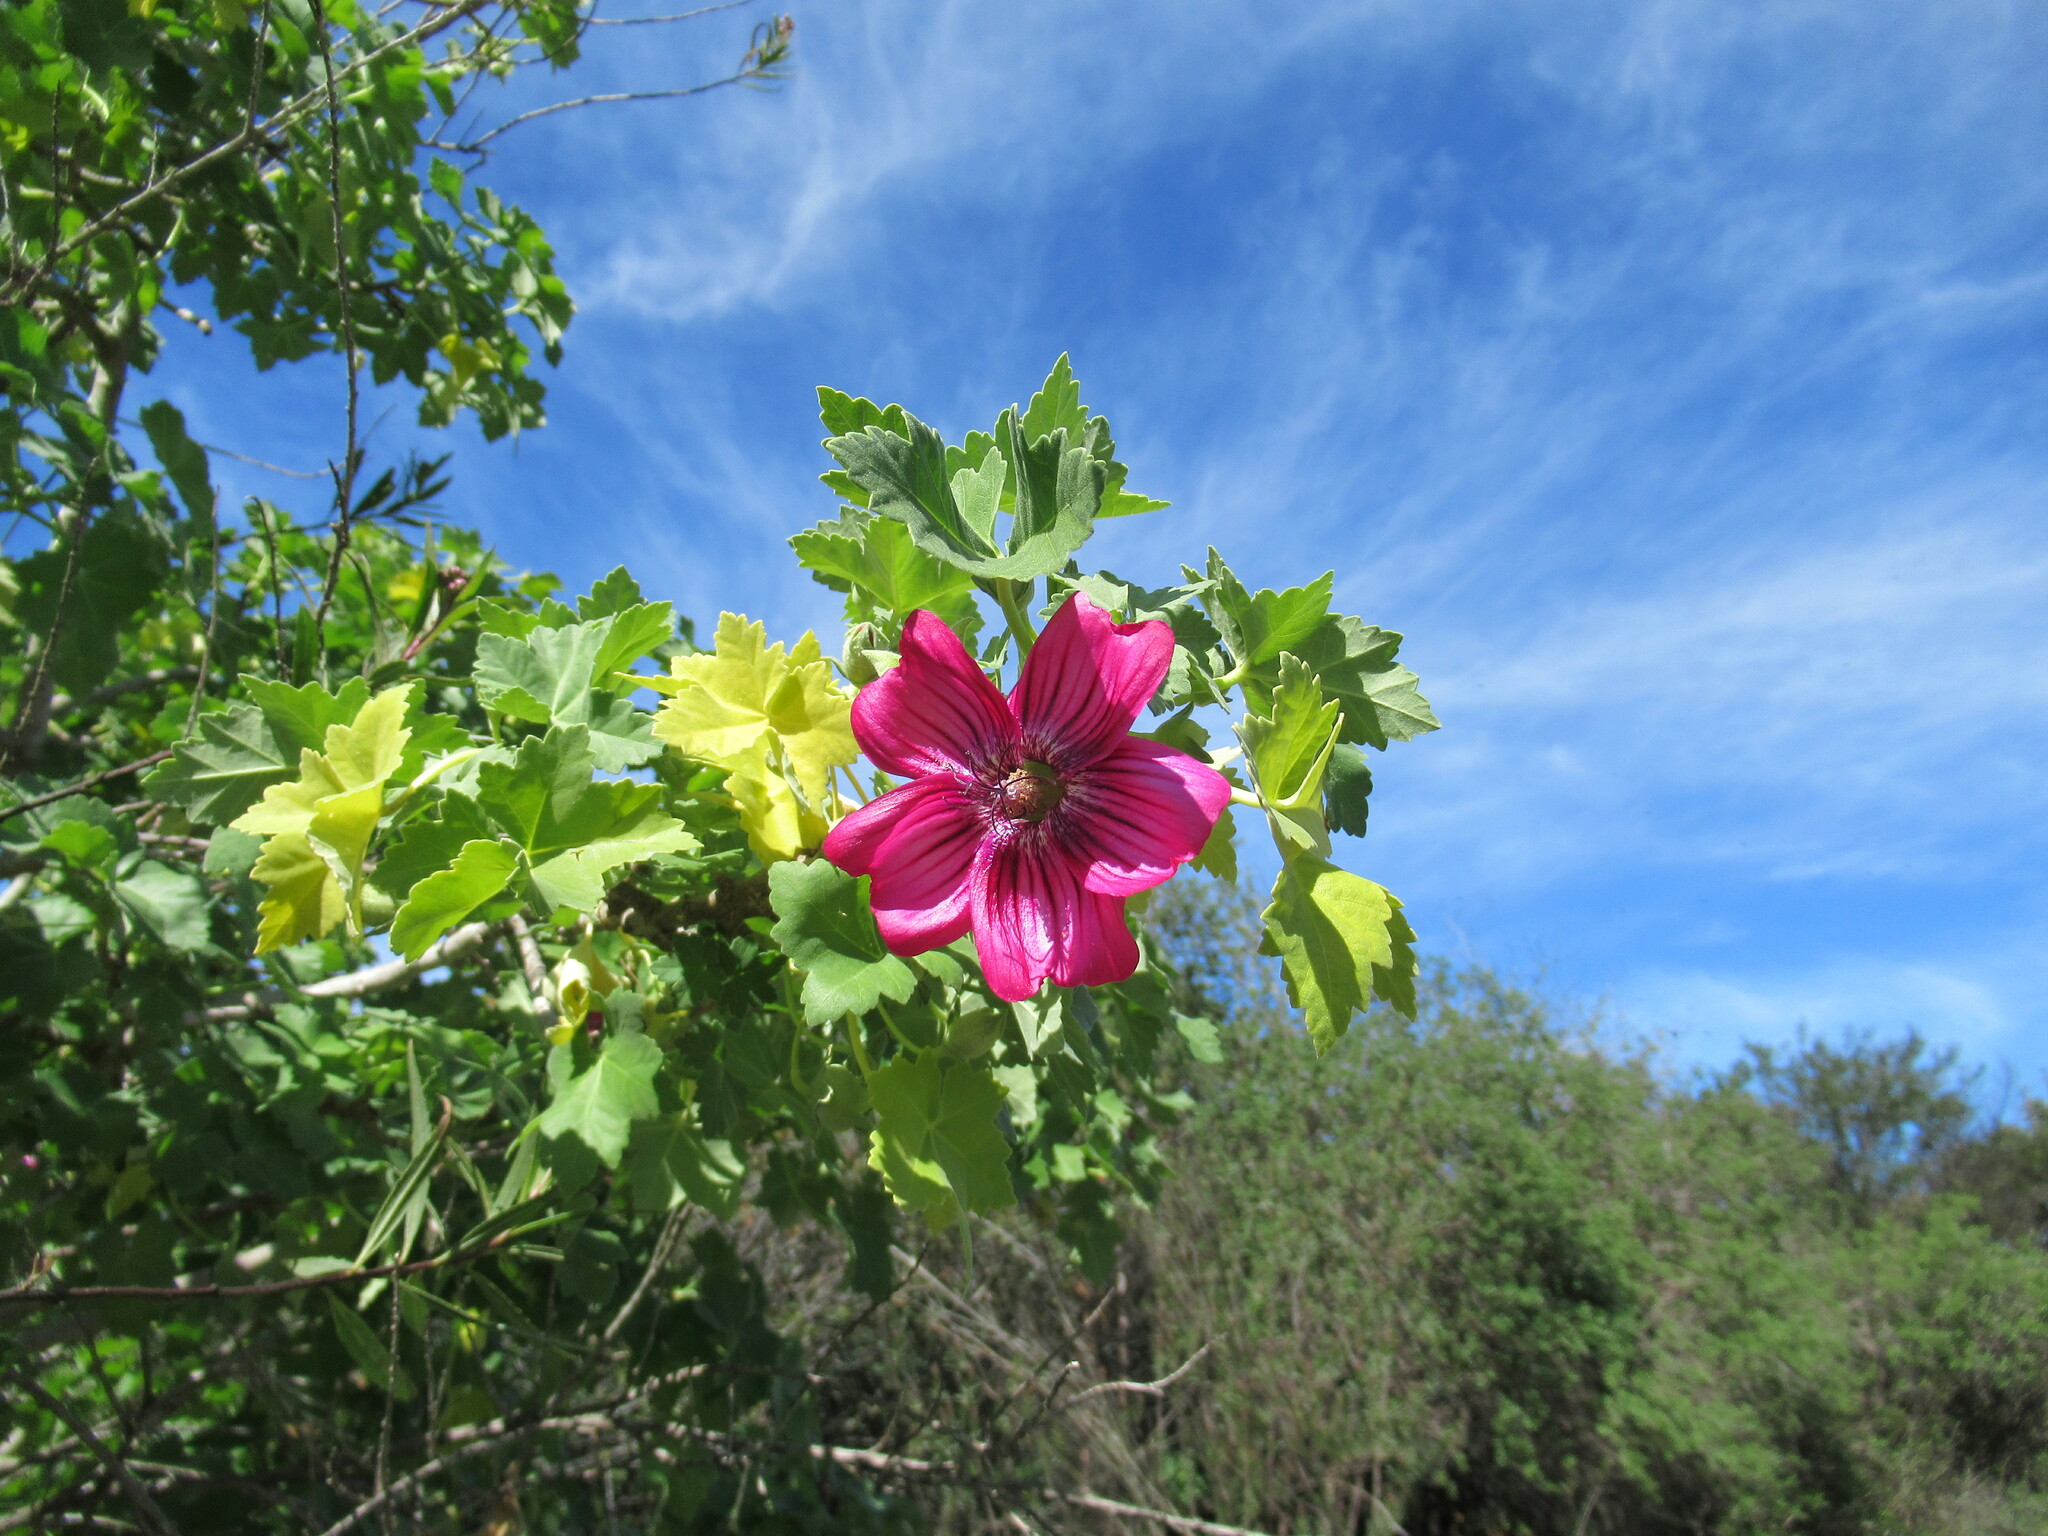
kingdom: Plantae
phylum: Tracheophyta
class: Magnoliopsida
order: Malvales
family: Malvaceae
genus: Malva
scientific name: Malva assurgentiflora
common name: Island mallow
